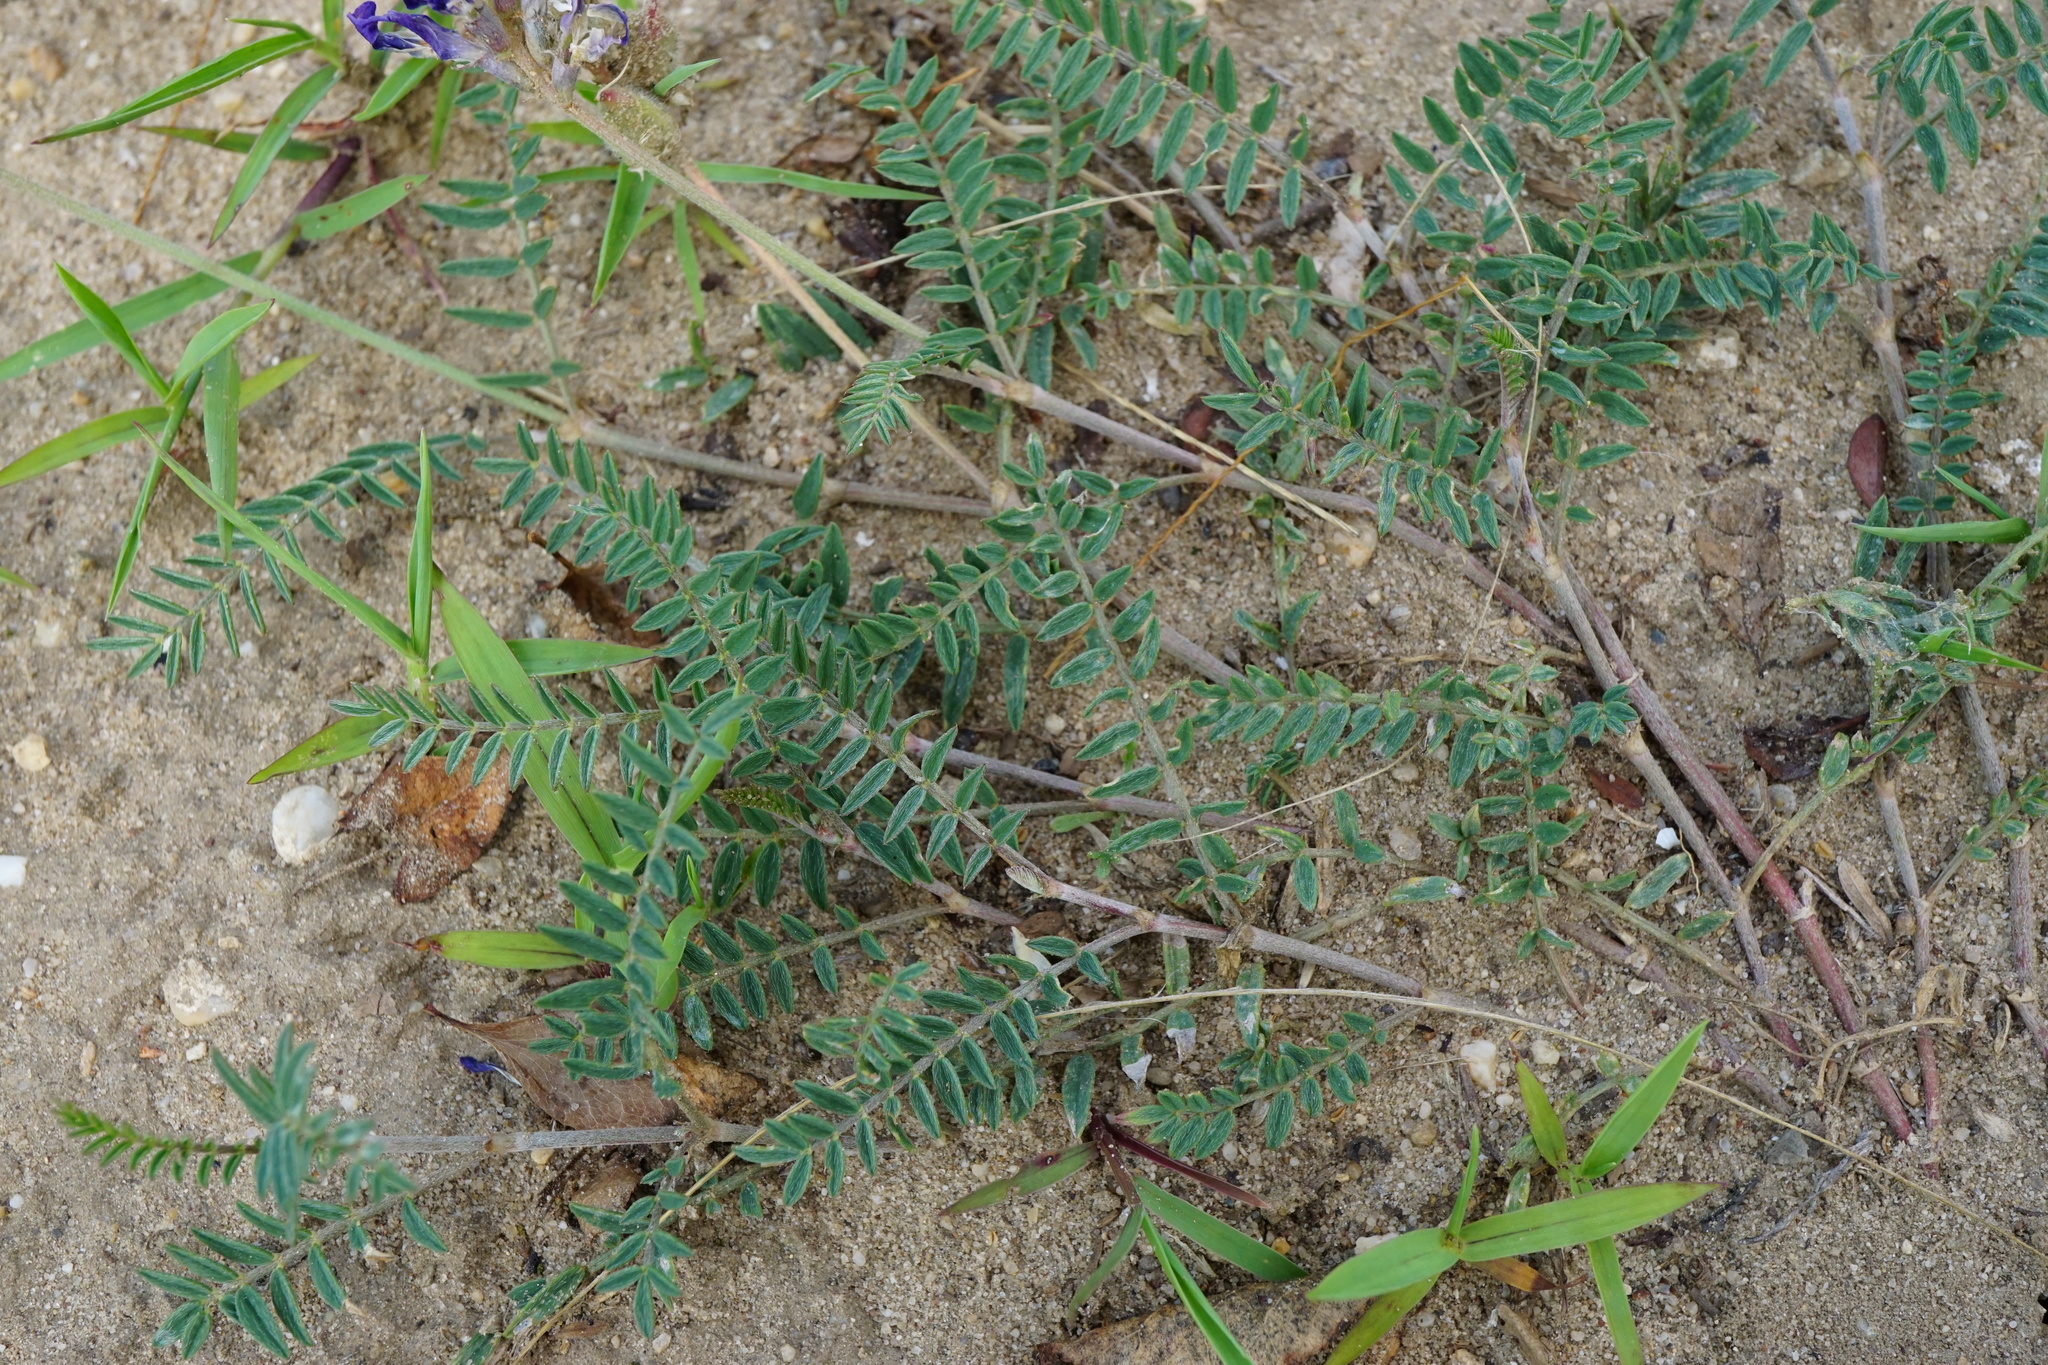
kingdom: Plantae
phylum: Tracheophyta
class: Magnoliopsida
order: Fabales
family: Fabaceae
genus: Astragalus
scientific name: Astragalus onobrychis
